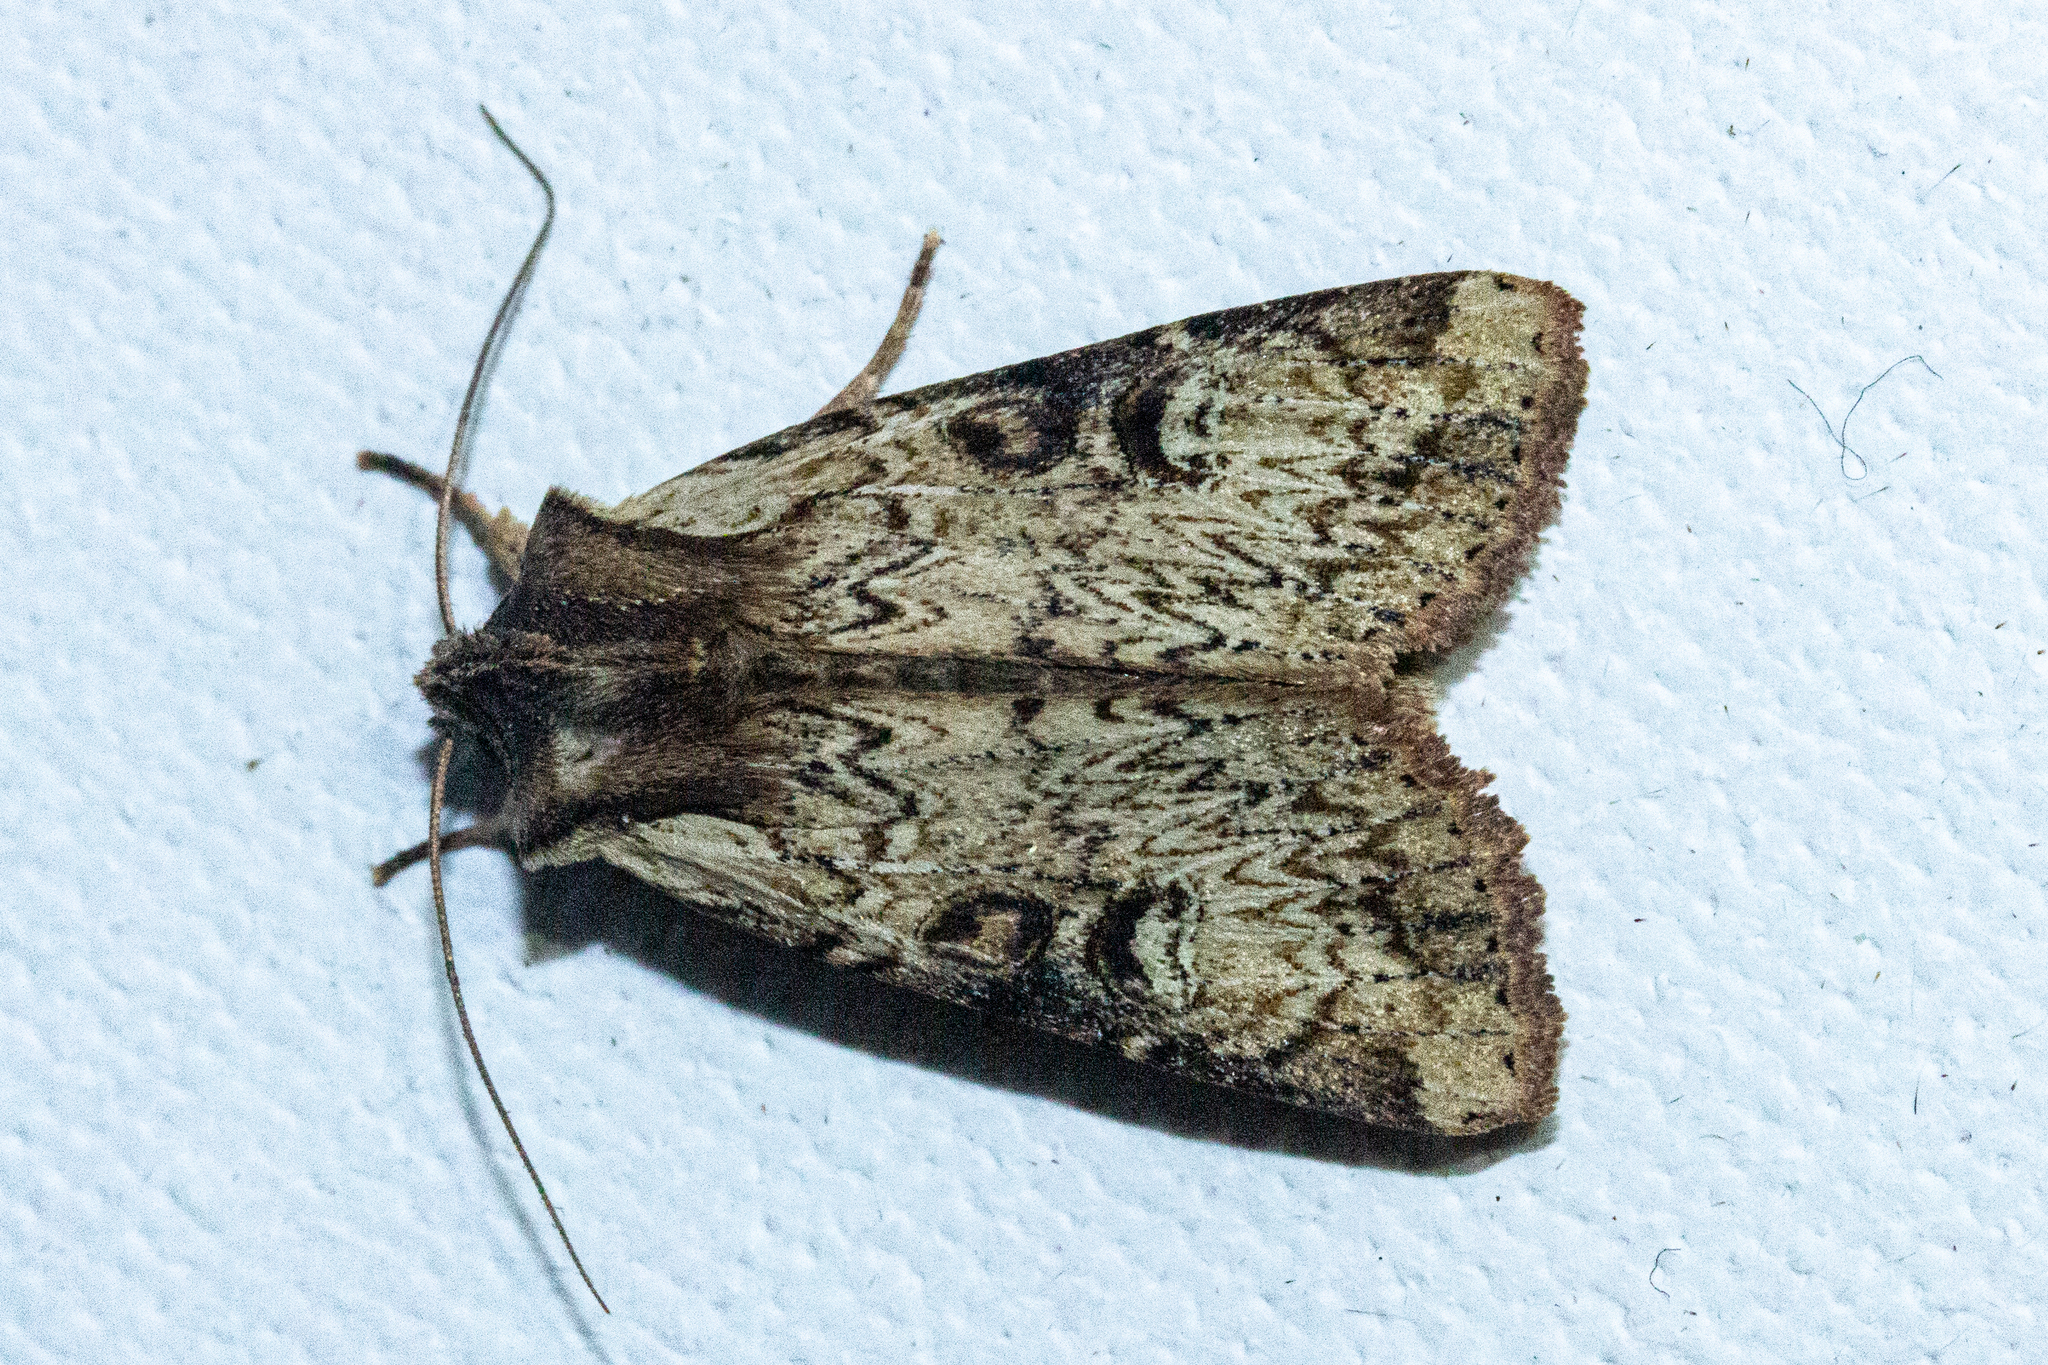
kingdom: Animalia
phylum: Arthropoda
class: Insecta
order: Lepidoptera
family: Noctuidae
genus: Ichneutica
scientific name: Ichneutica omoplaca
